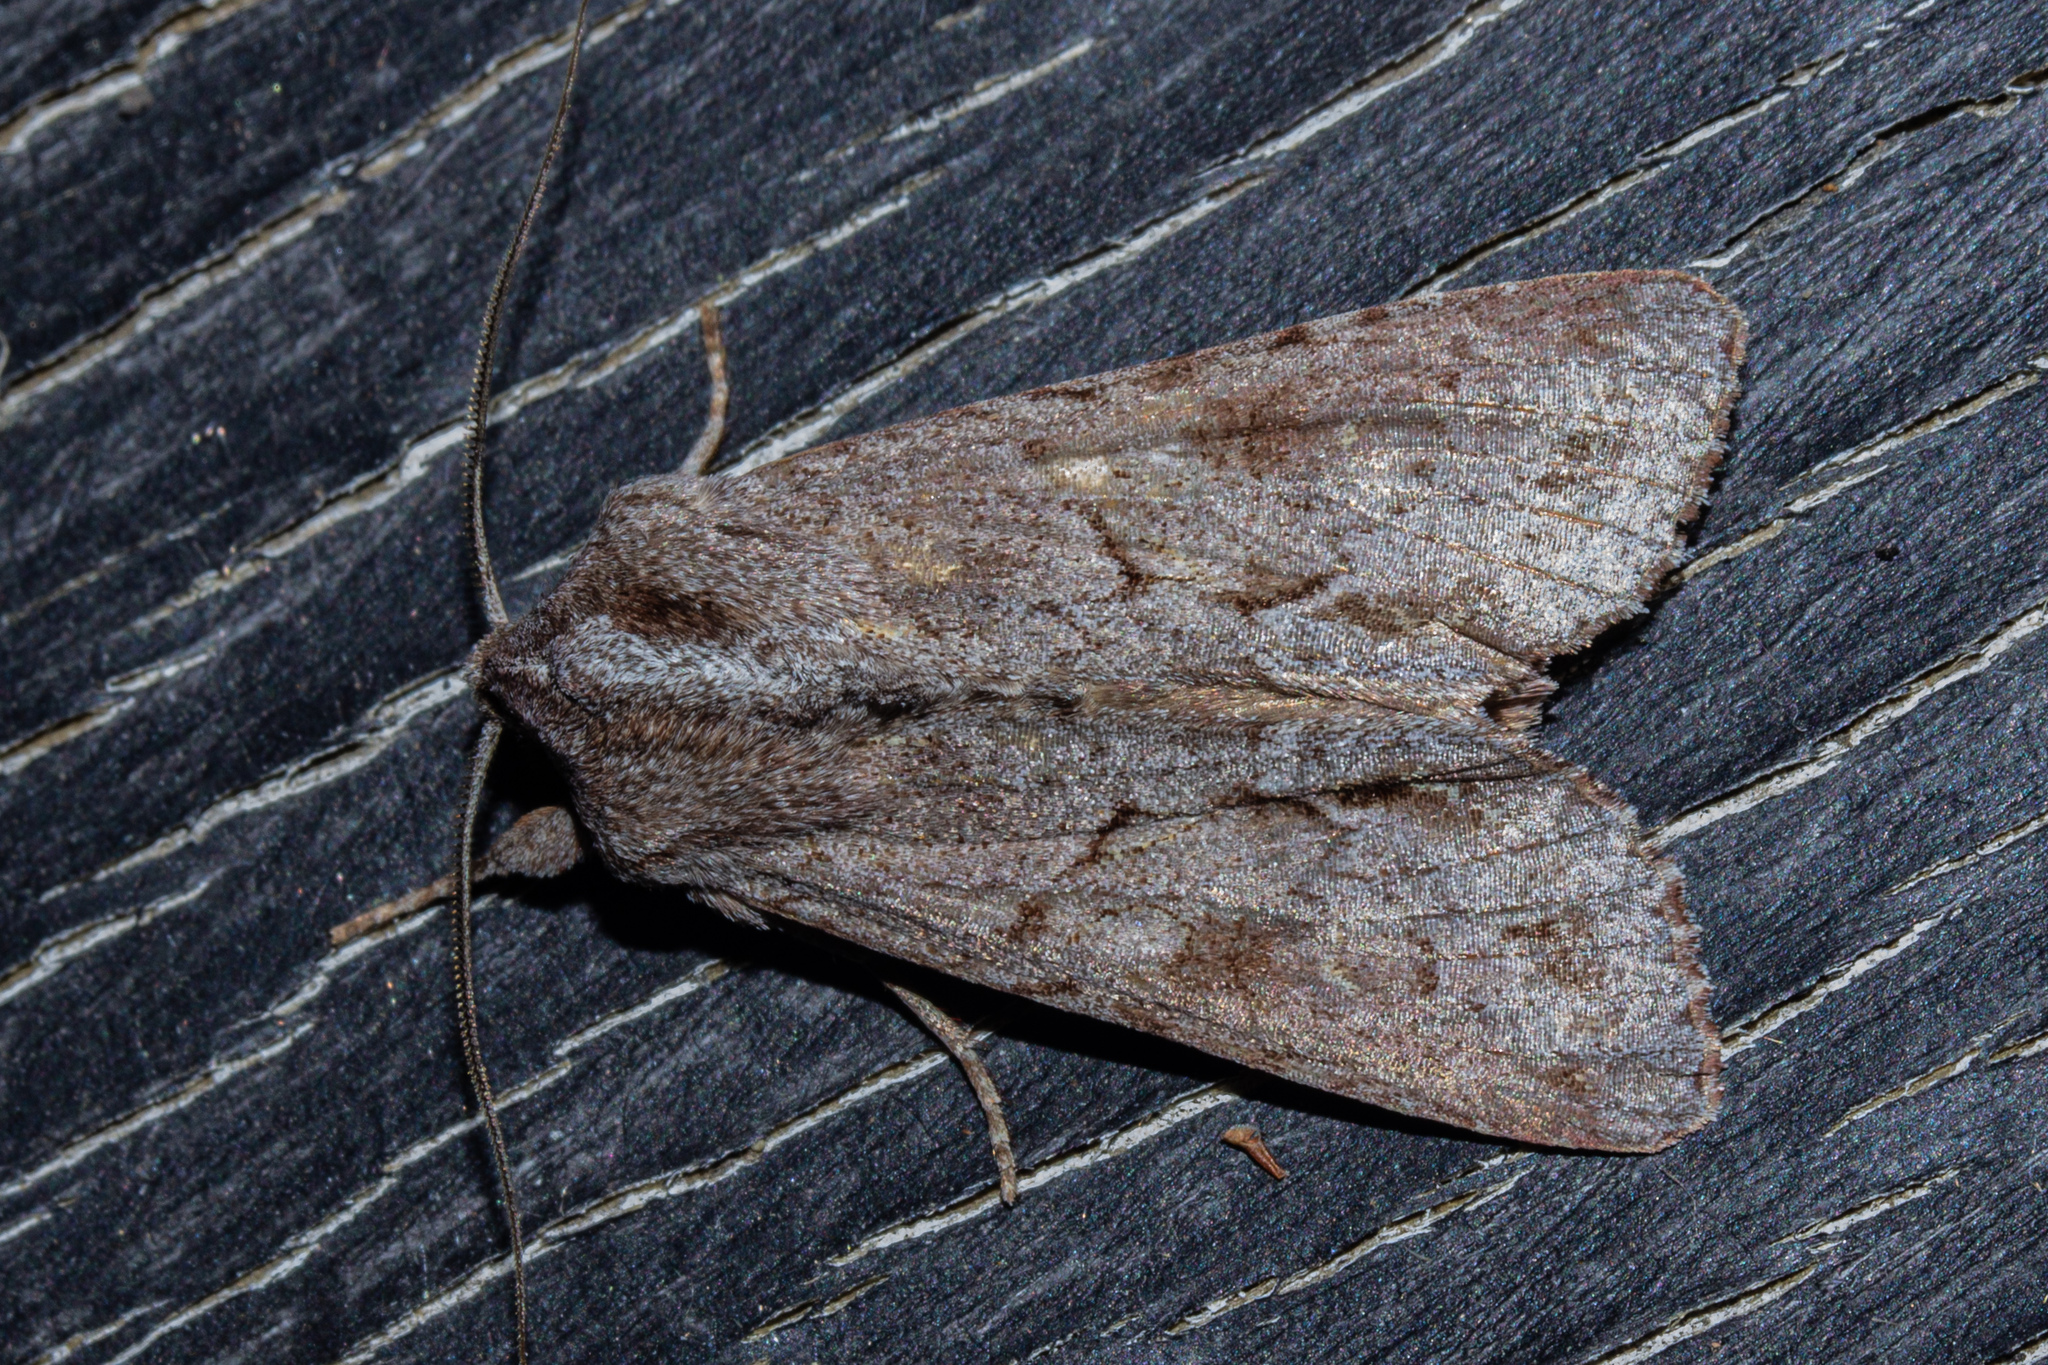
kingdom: Animalia
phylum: Arthropoda
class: Insecta
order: Lepidoptera
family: Noctuidae
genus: Ichneutica
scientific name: Ichneutica
